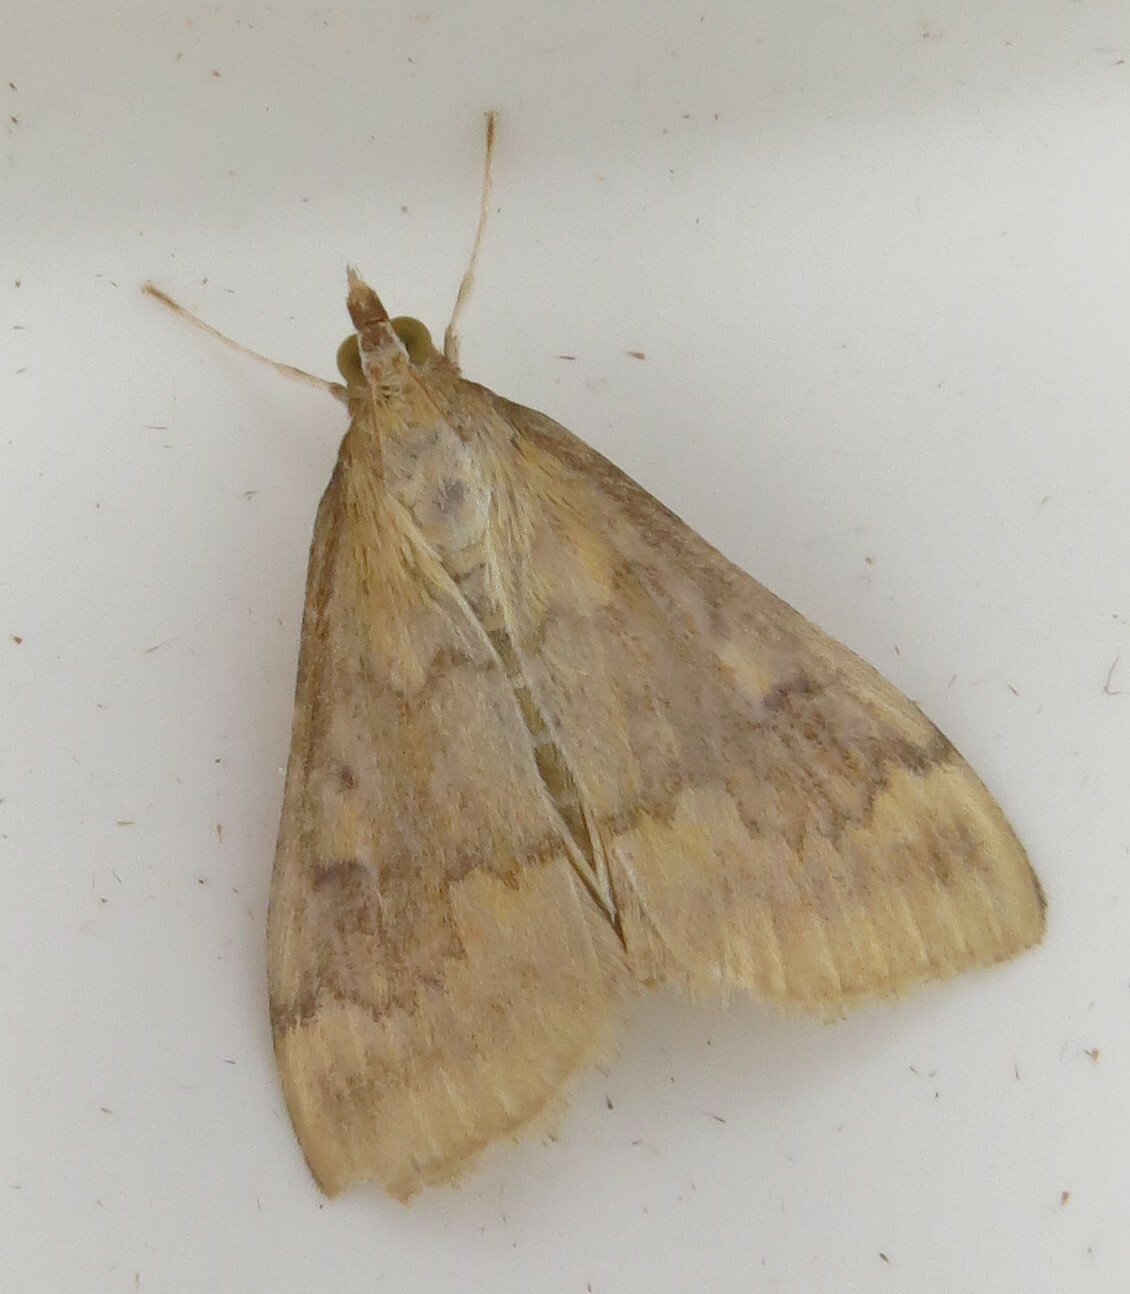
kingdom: Animalia
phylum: Arthropoda
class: Insecta
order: Lepidoptera
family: Crambidae
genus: Ostrinia
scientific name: Ostrinia nubilalis
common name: European corn borer
